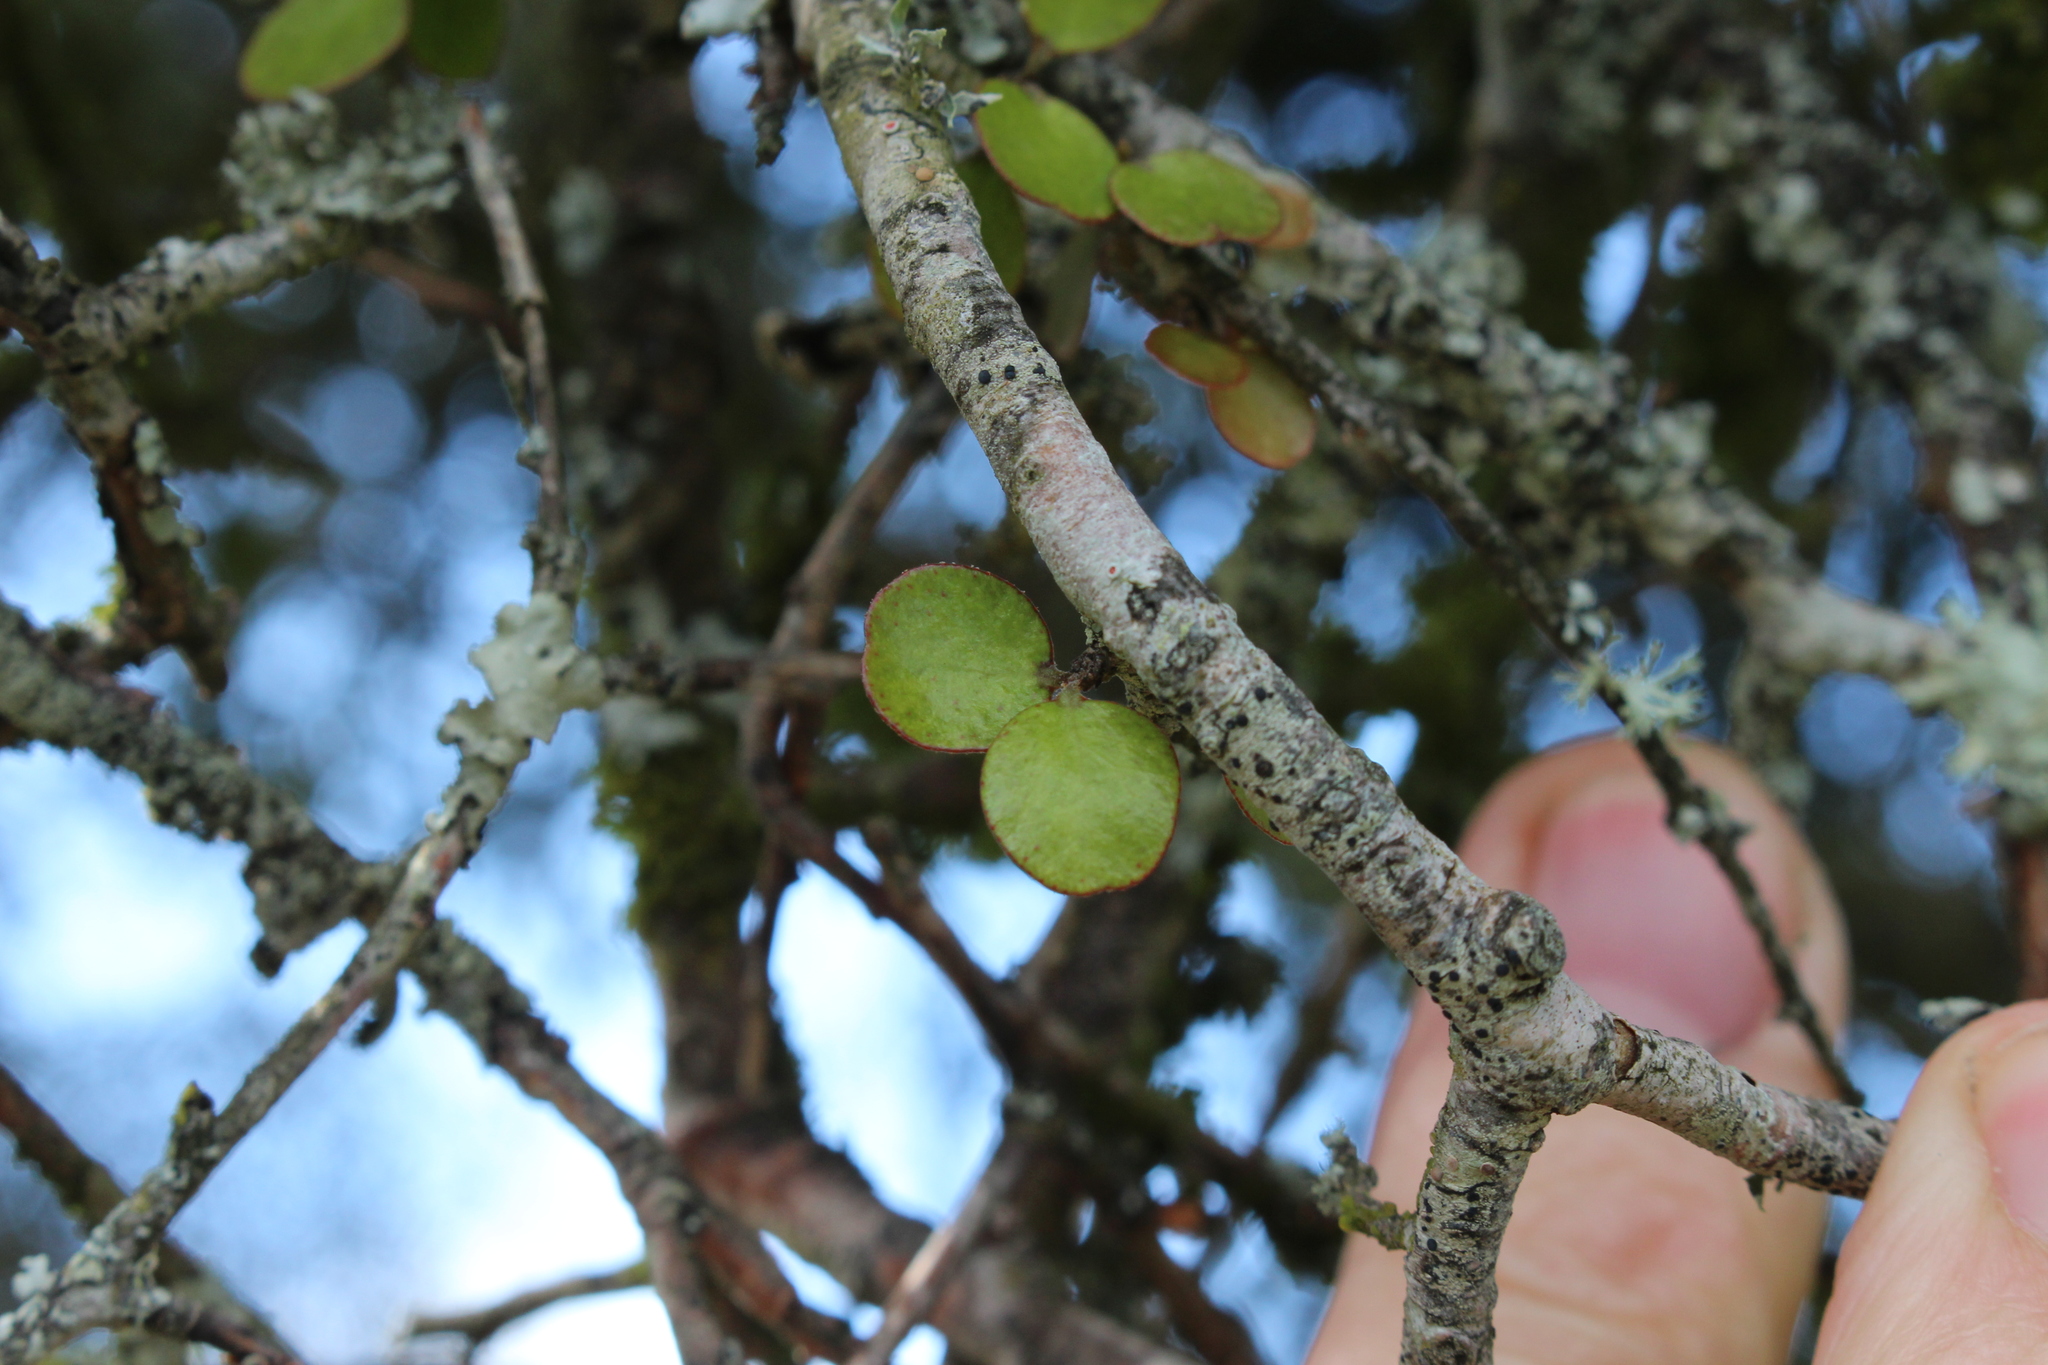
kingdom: Plantae
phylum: Tracheophyta
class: Magnoliopsida
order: Ericales
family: Primulaceae
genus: Myrsine
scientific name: Myrsine divaricata
